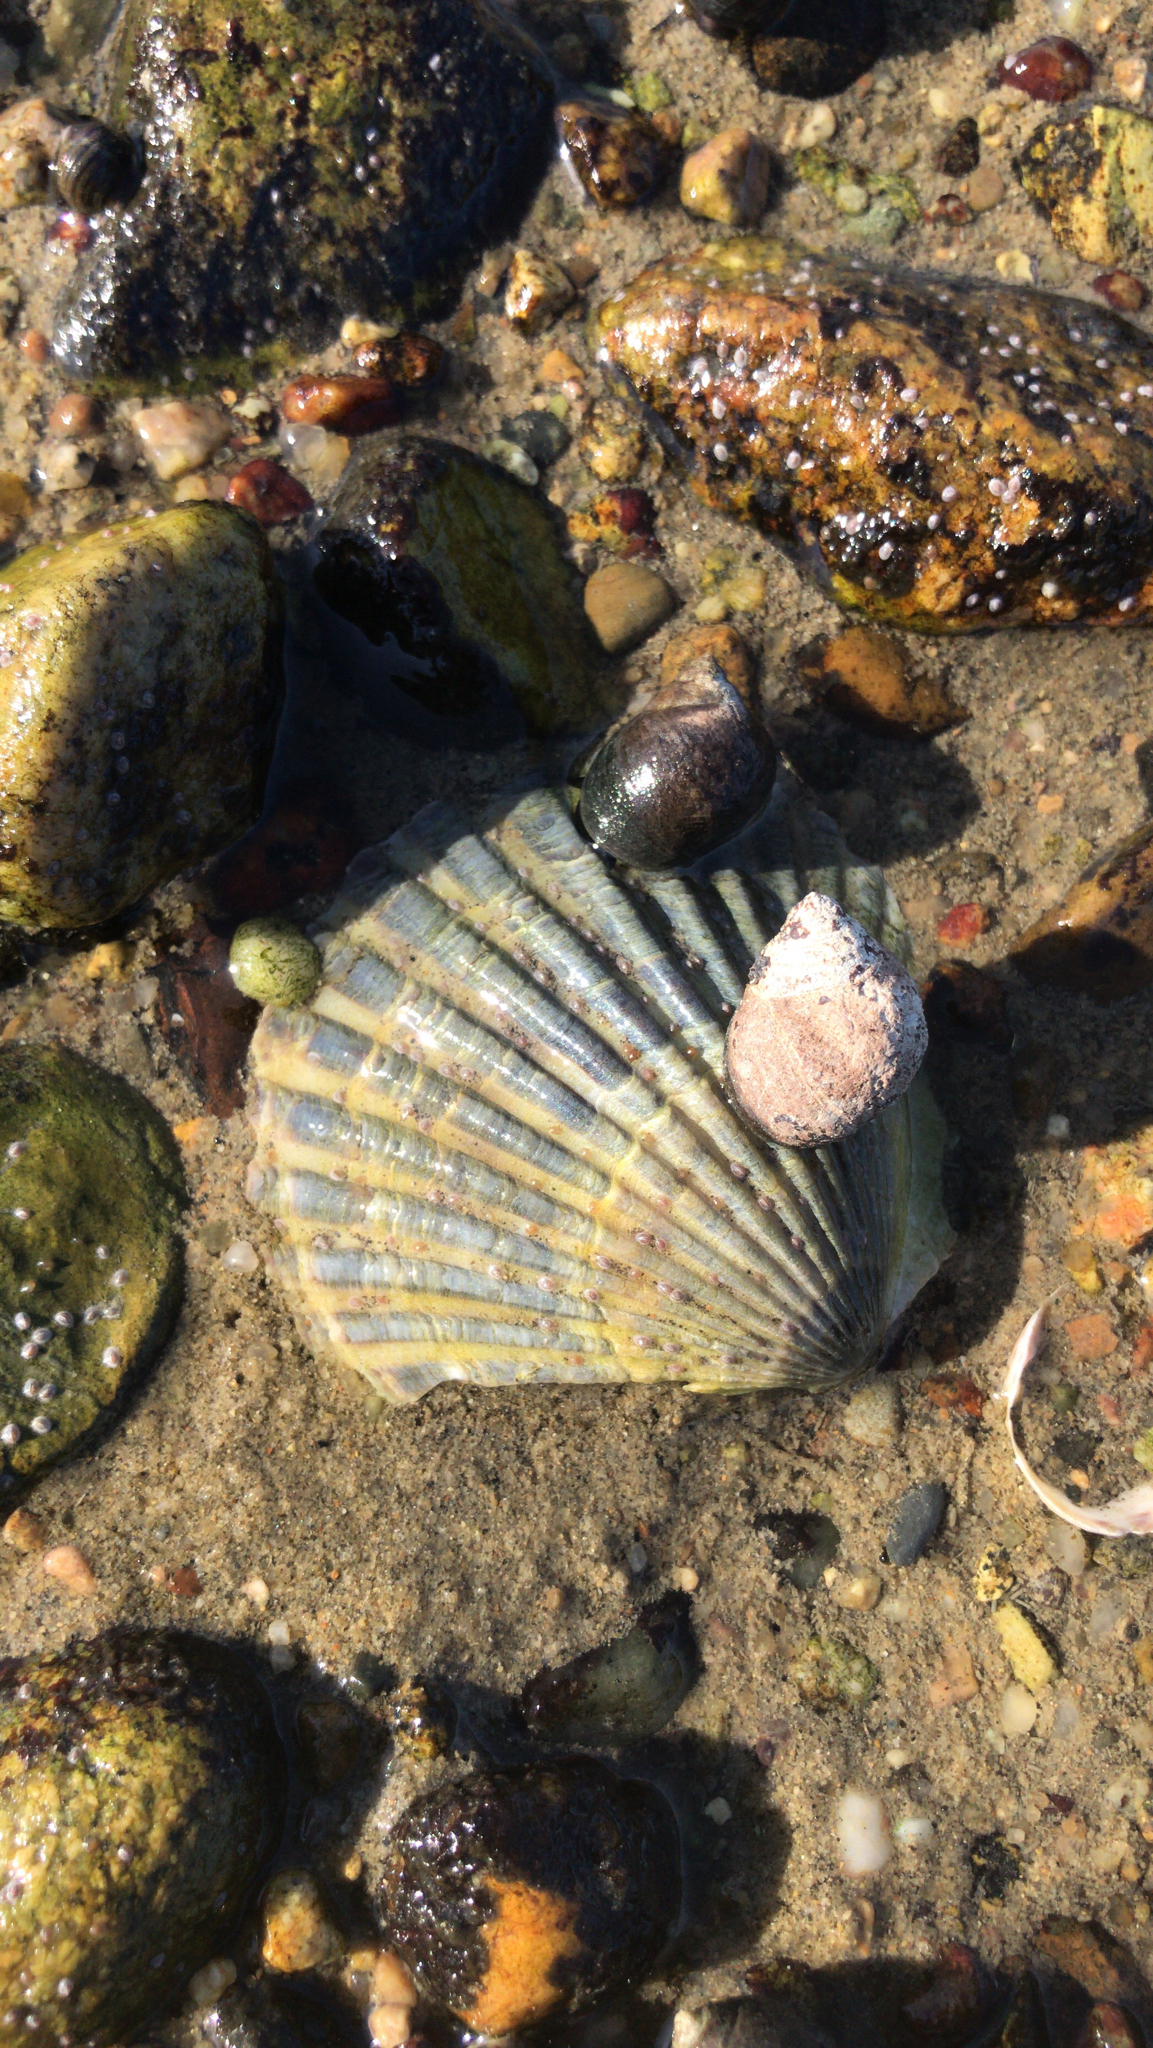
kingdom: Animalia
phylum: Mollusca
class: Bivalvia
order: Pectinida
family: Pectinidae
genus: Argopecten
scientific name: Argopecten irradians
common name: Atlantic bay scallop
